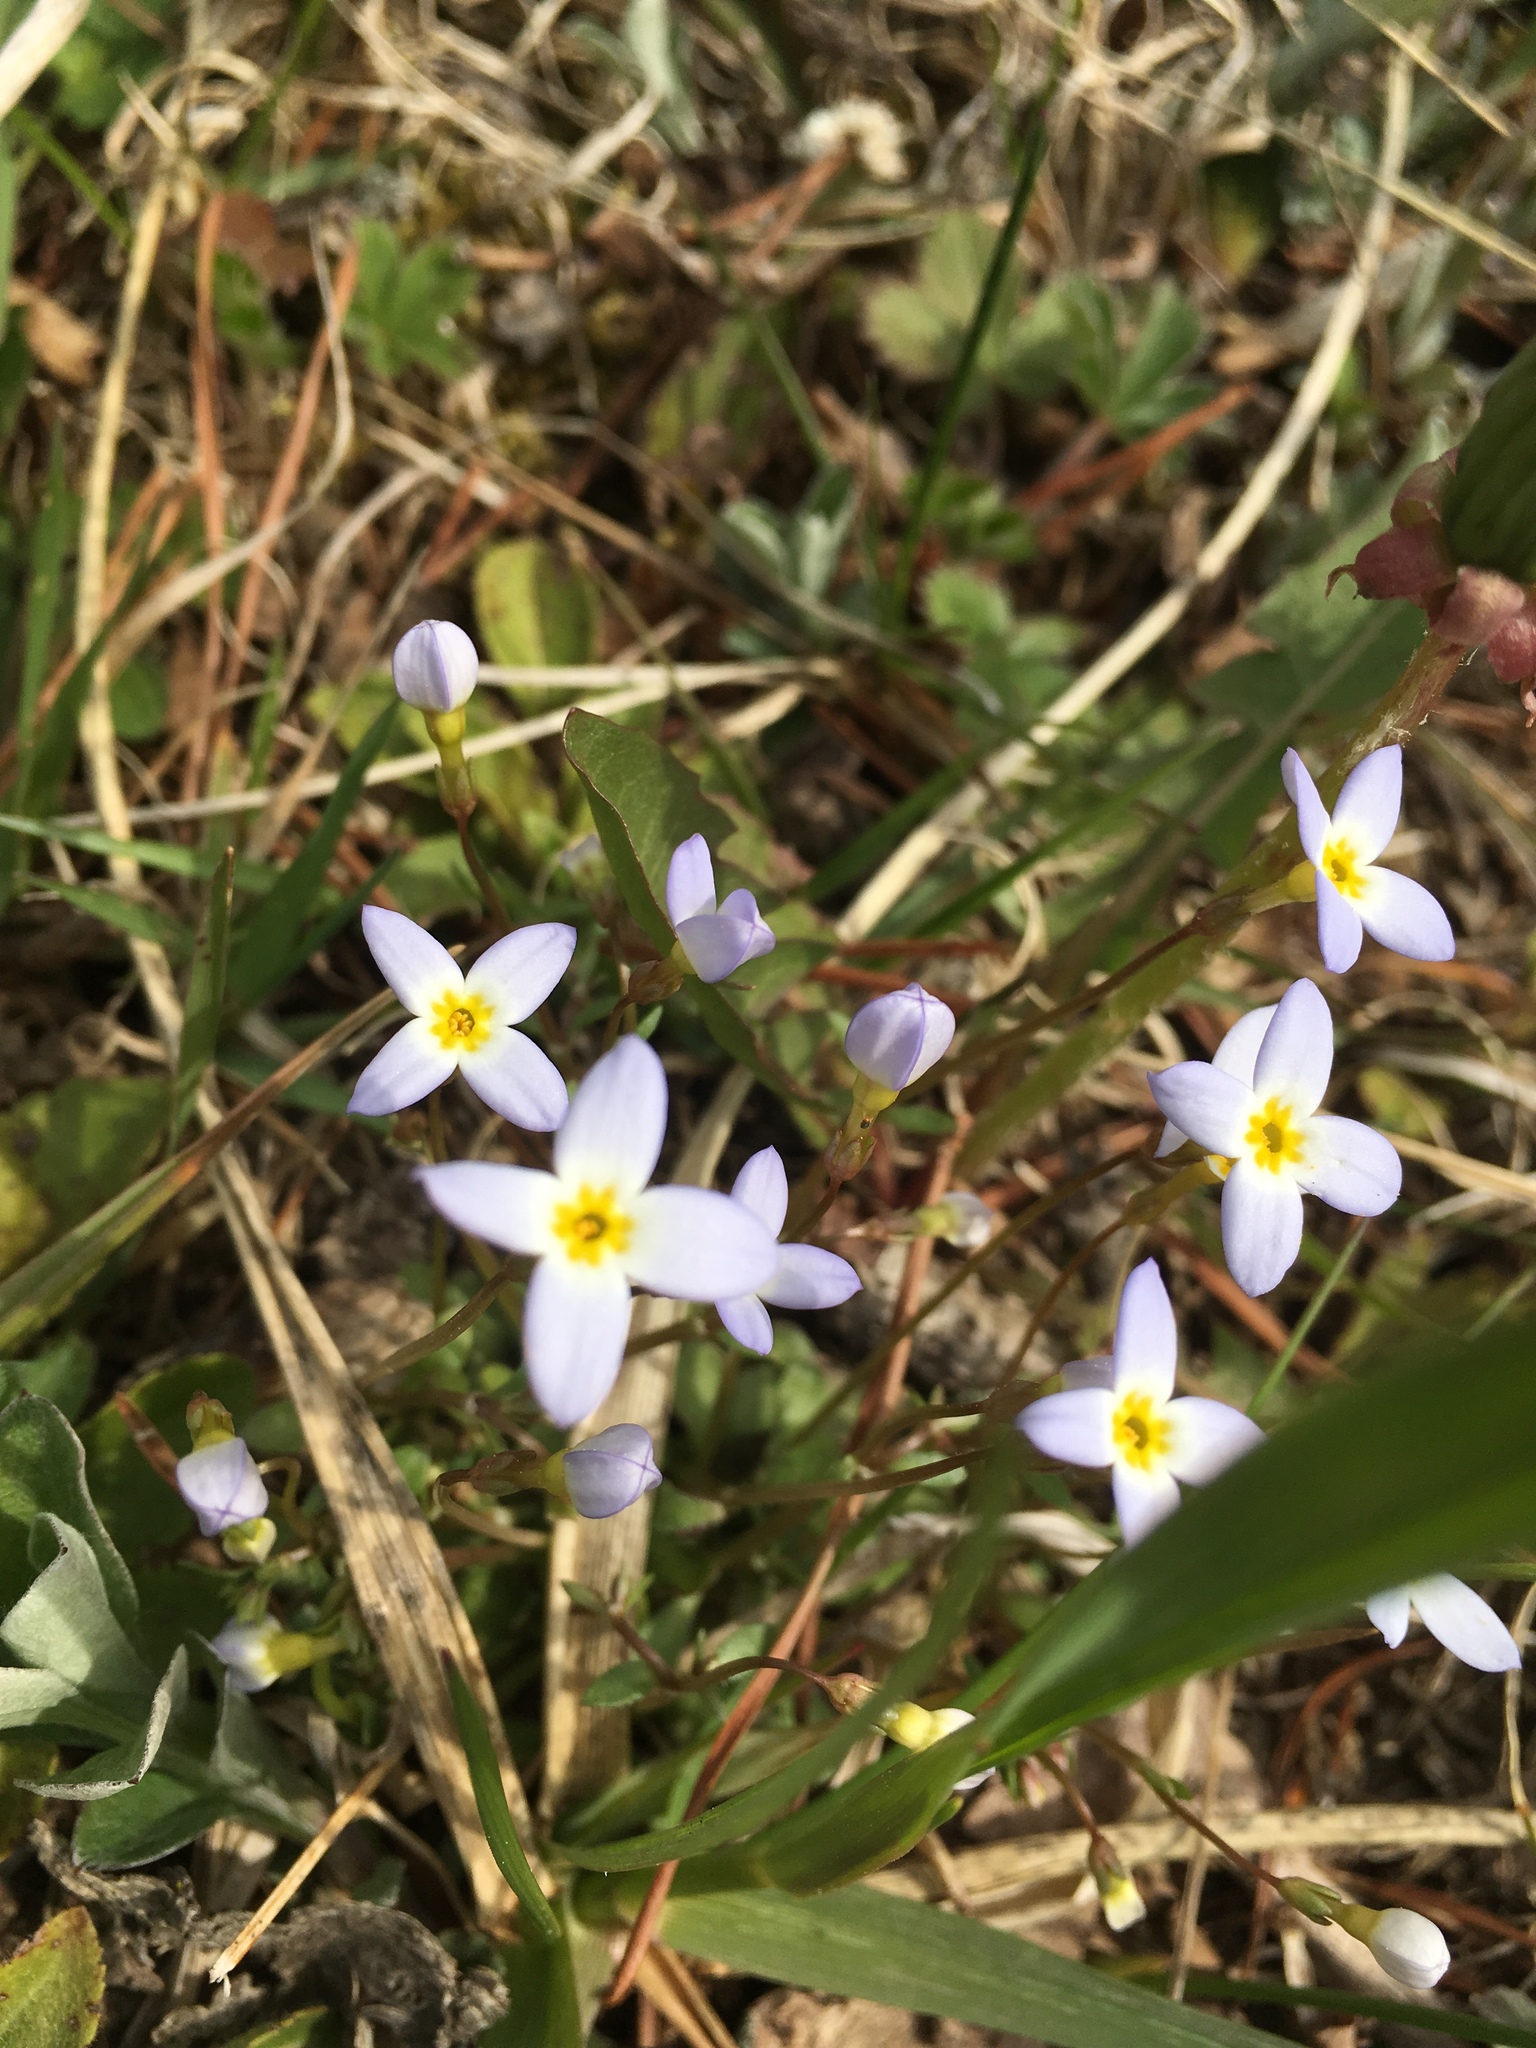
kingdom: Plantae
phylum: Tracheophyta
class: Magnoliopsida
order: Gentianales
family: Rubiaceae
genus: Houstonia
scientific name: Houstonia caerulea
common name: Bluets
